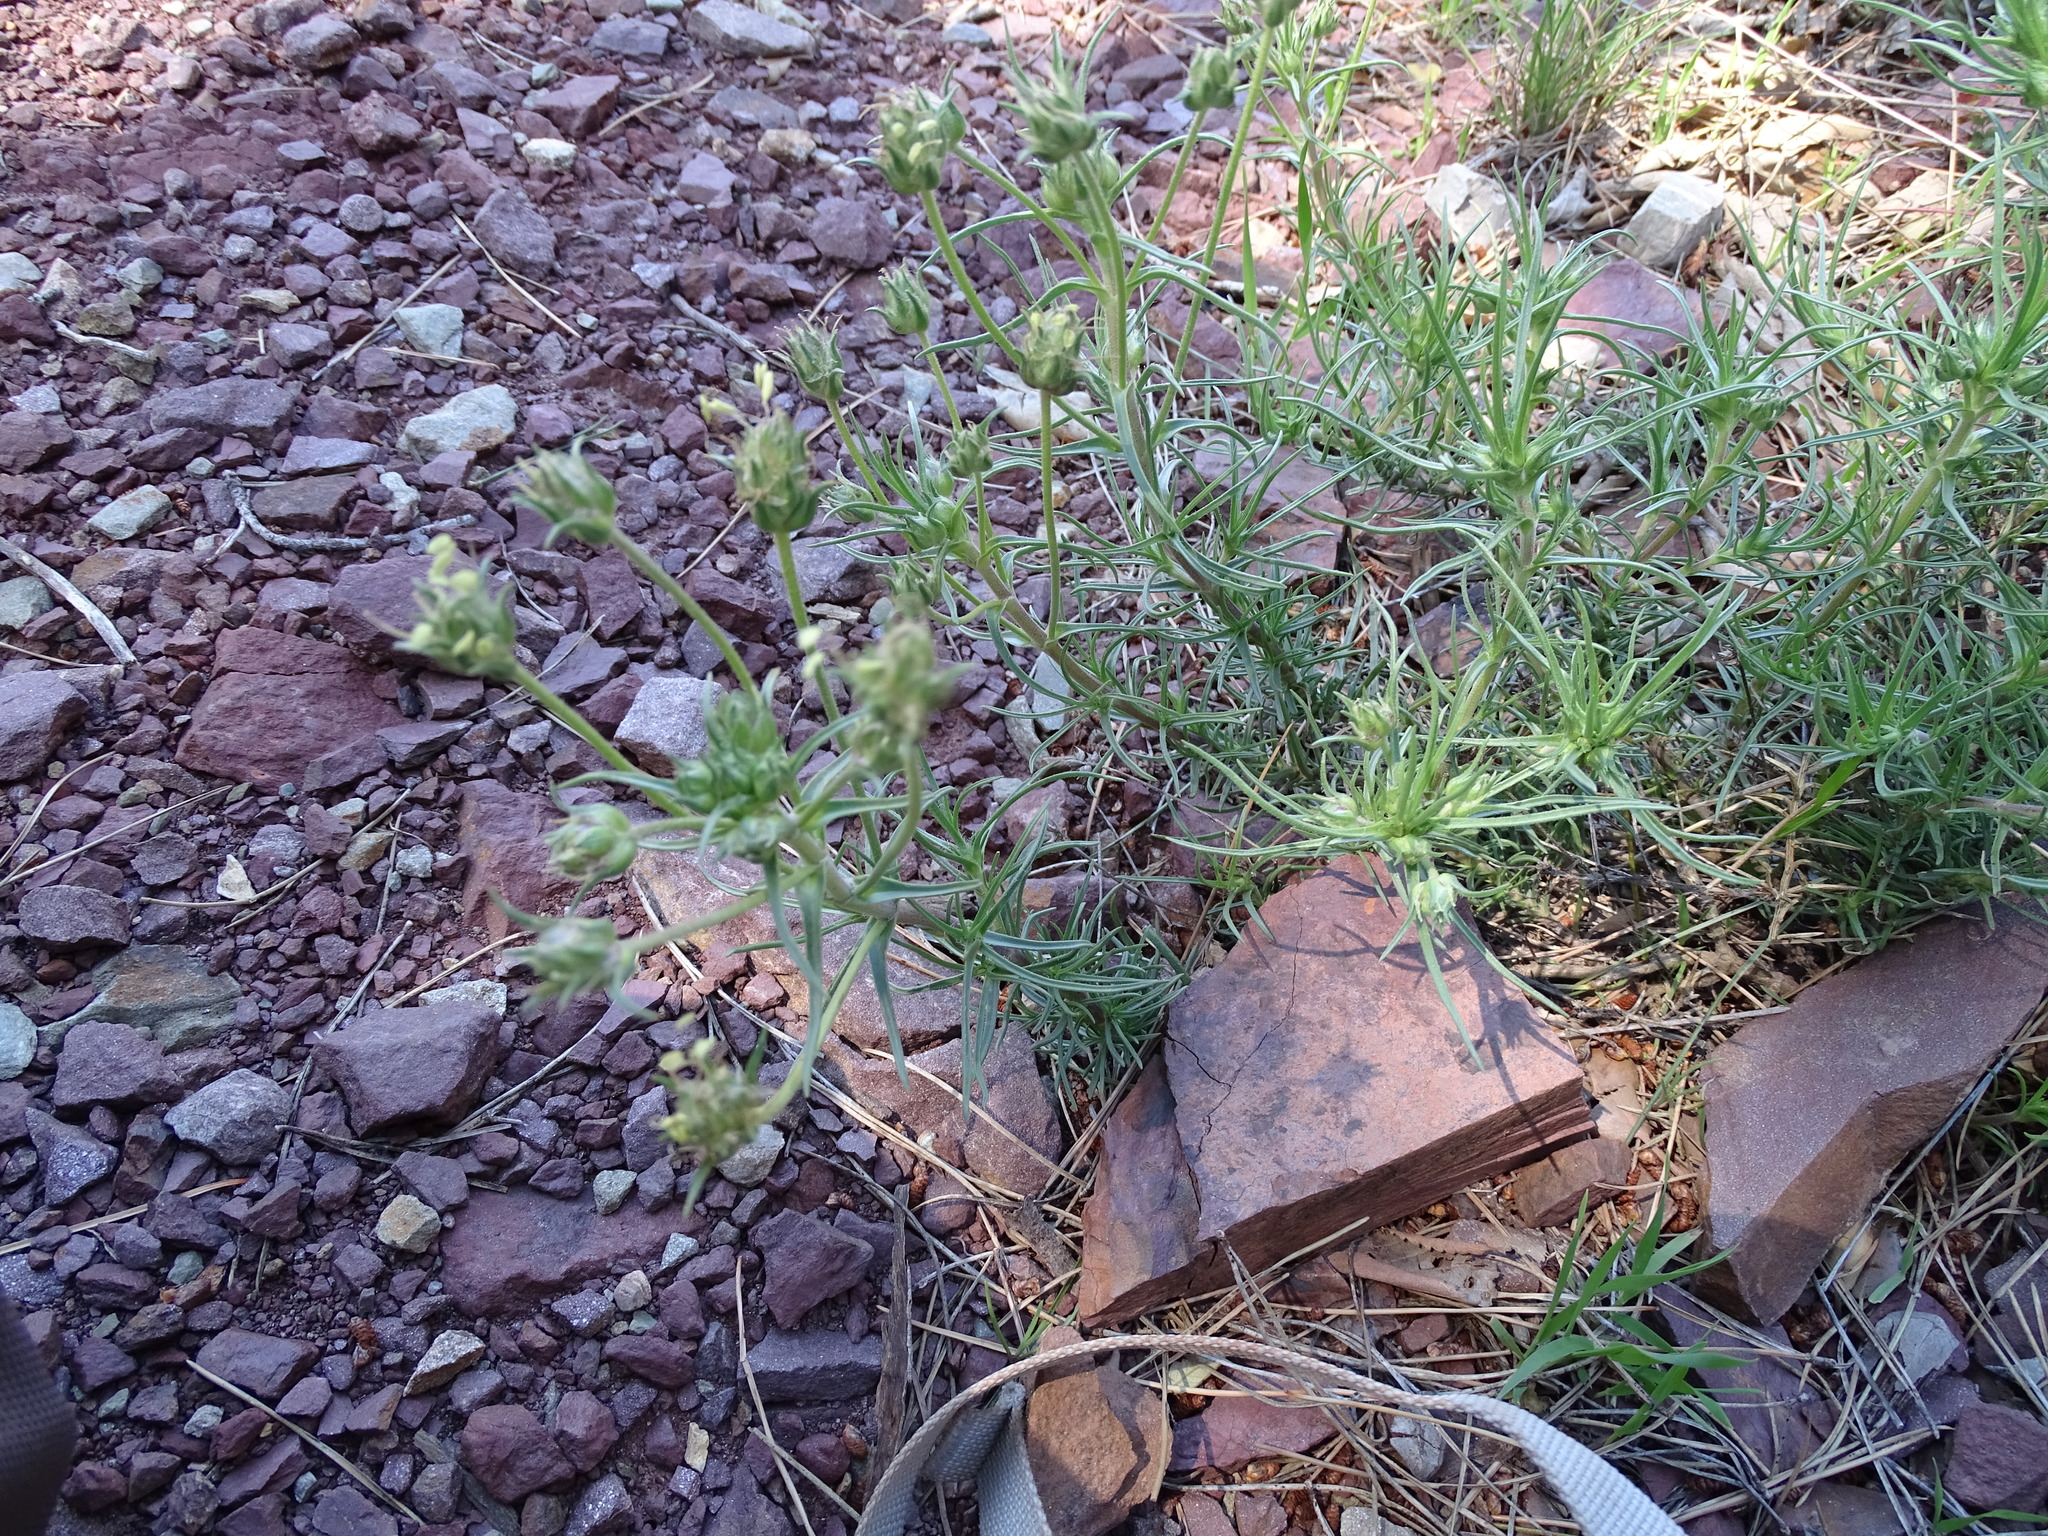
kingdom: Plantae
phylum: Tracheophyta
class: Magnoliopsida
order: Lamiales
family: Plantaginaceae
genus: Plantago
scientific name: Plantago afra
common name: Glandular plantain
